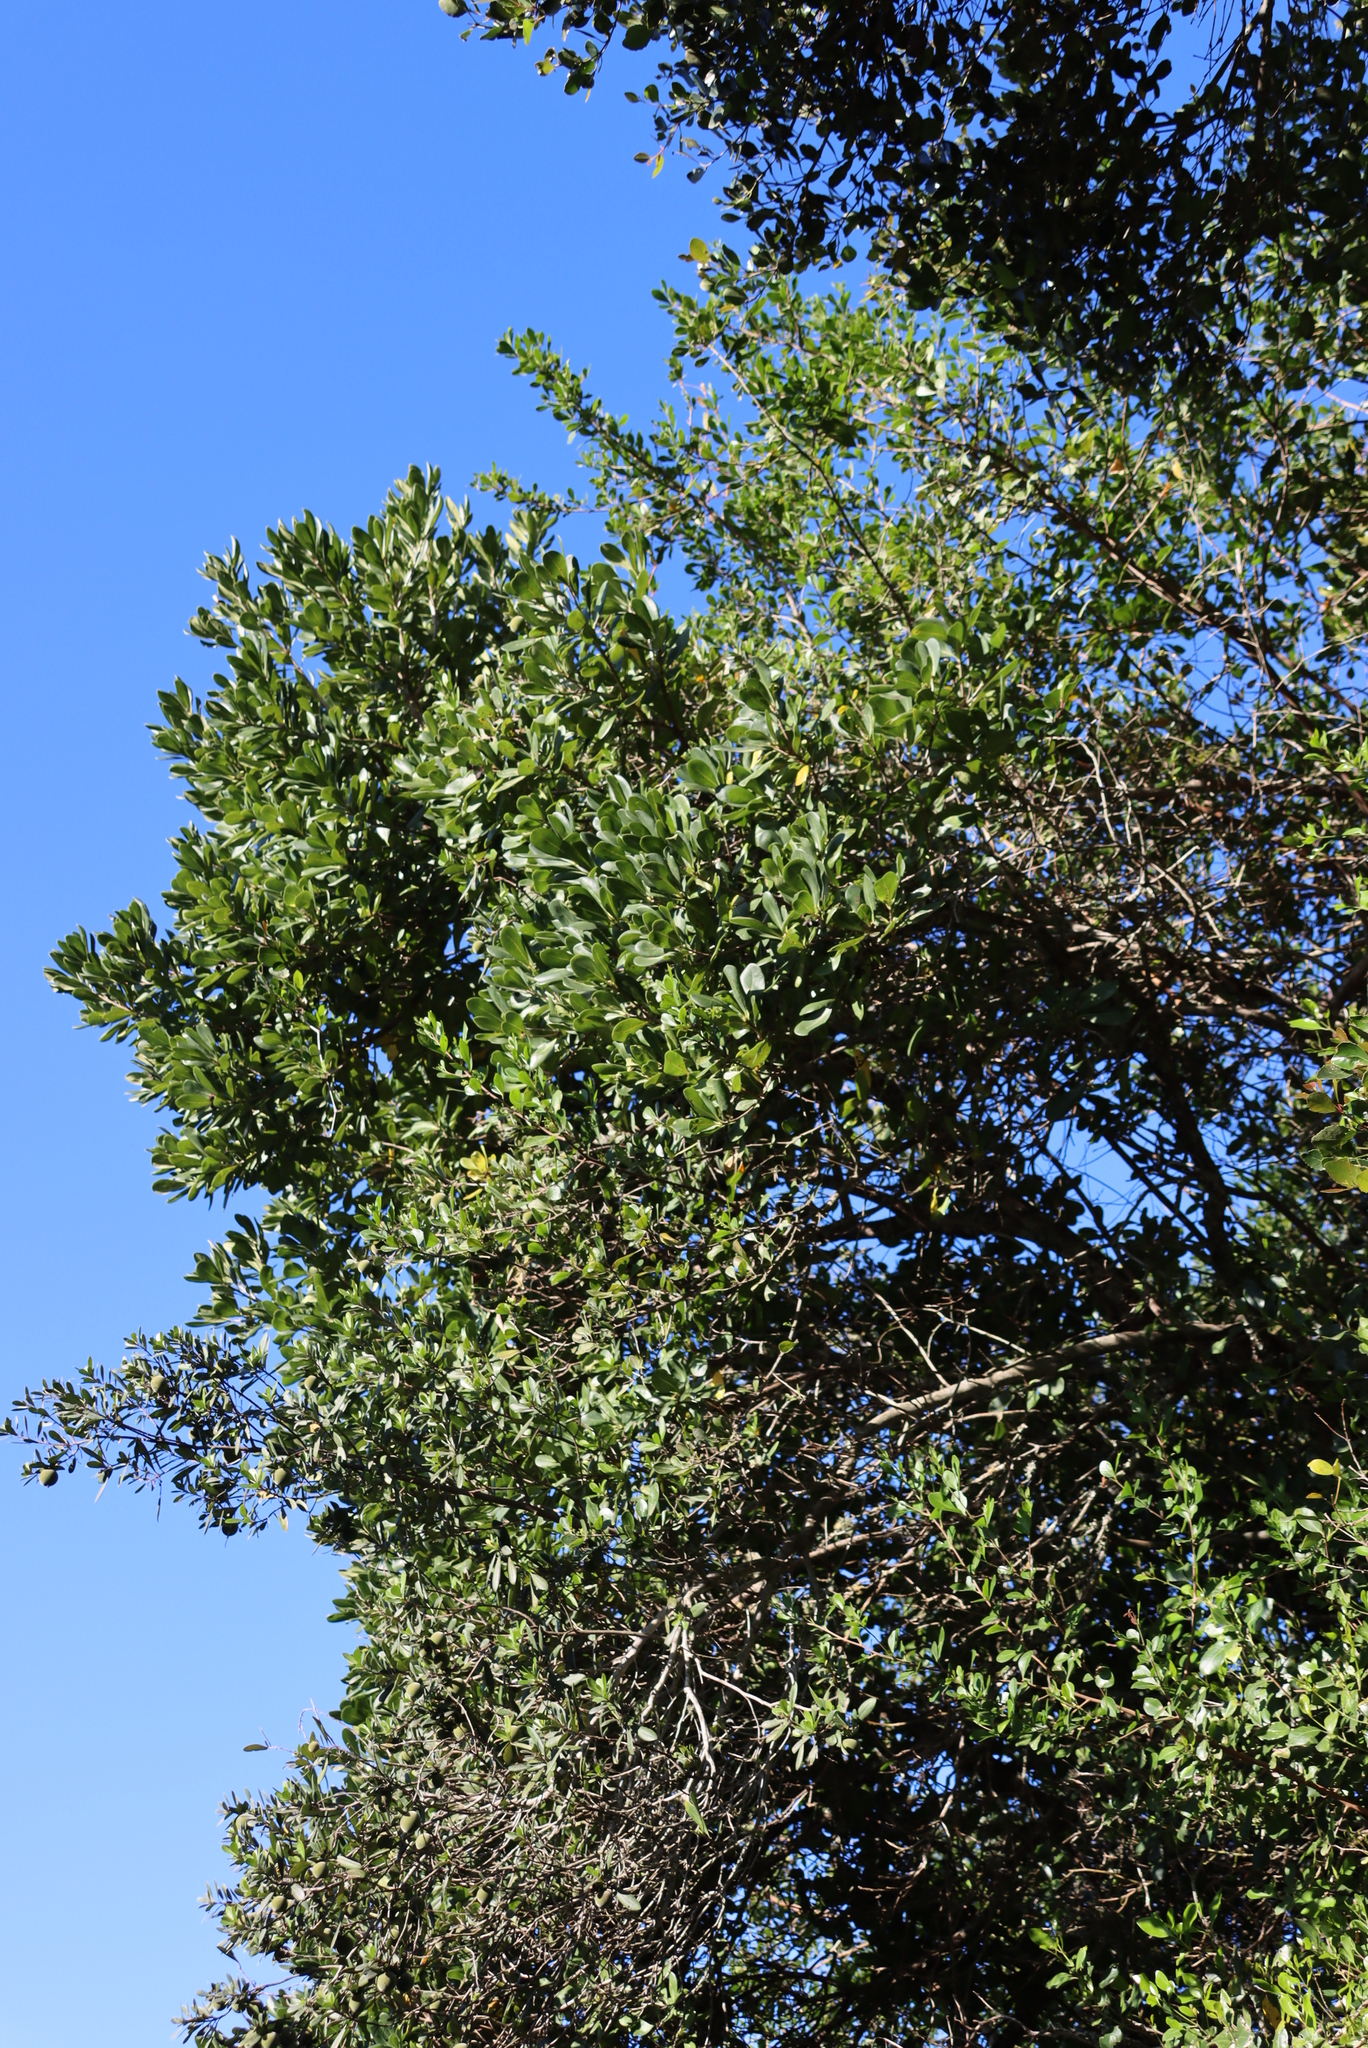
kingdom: Plantae
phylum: Tracheophyta
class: Magnoliopsida
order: Apiales
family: Pittosporaceae
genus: Pittosporum
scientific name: Pittosporum viridiflorum
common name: Cape cheesewood
